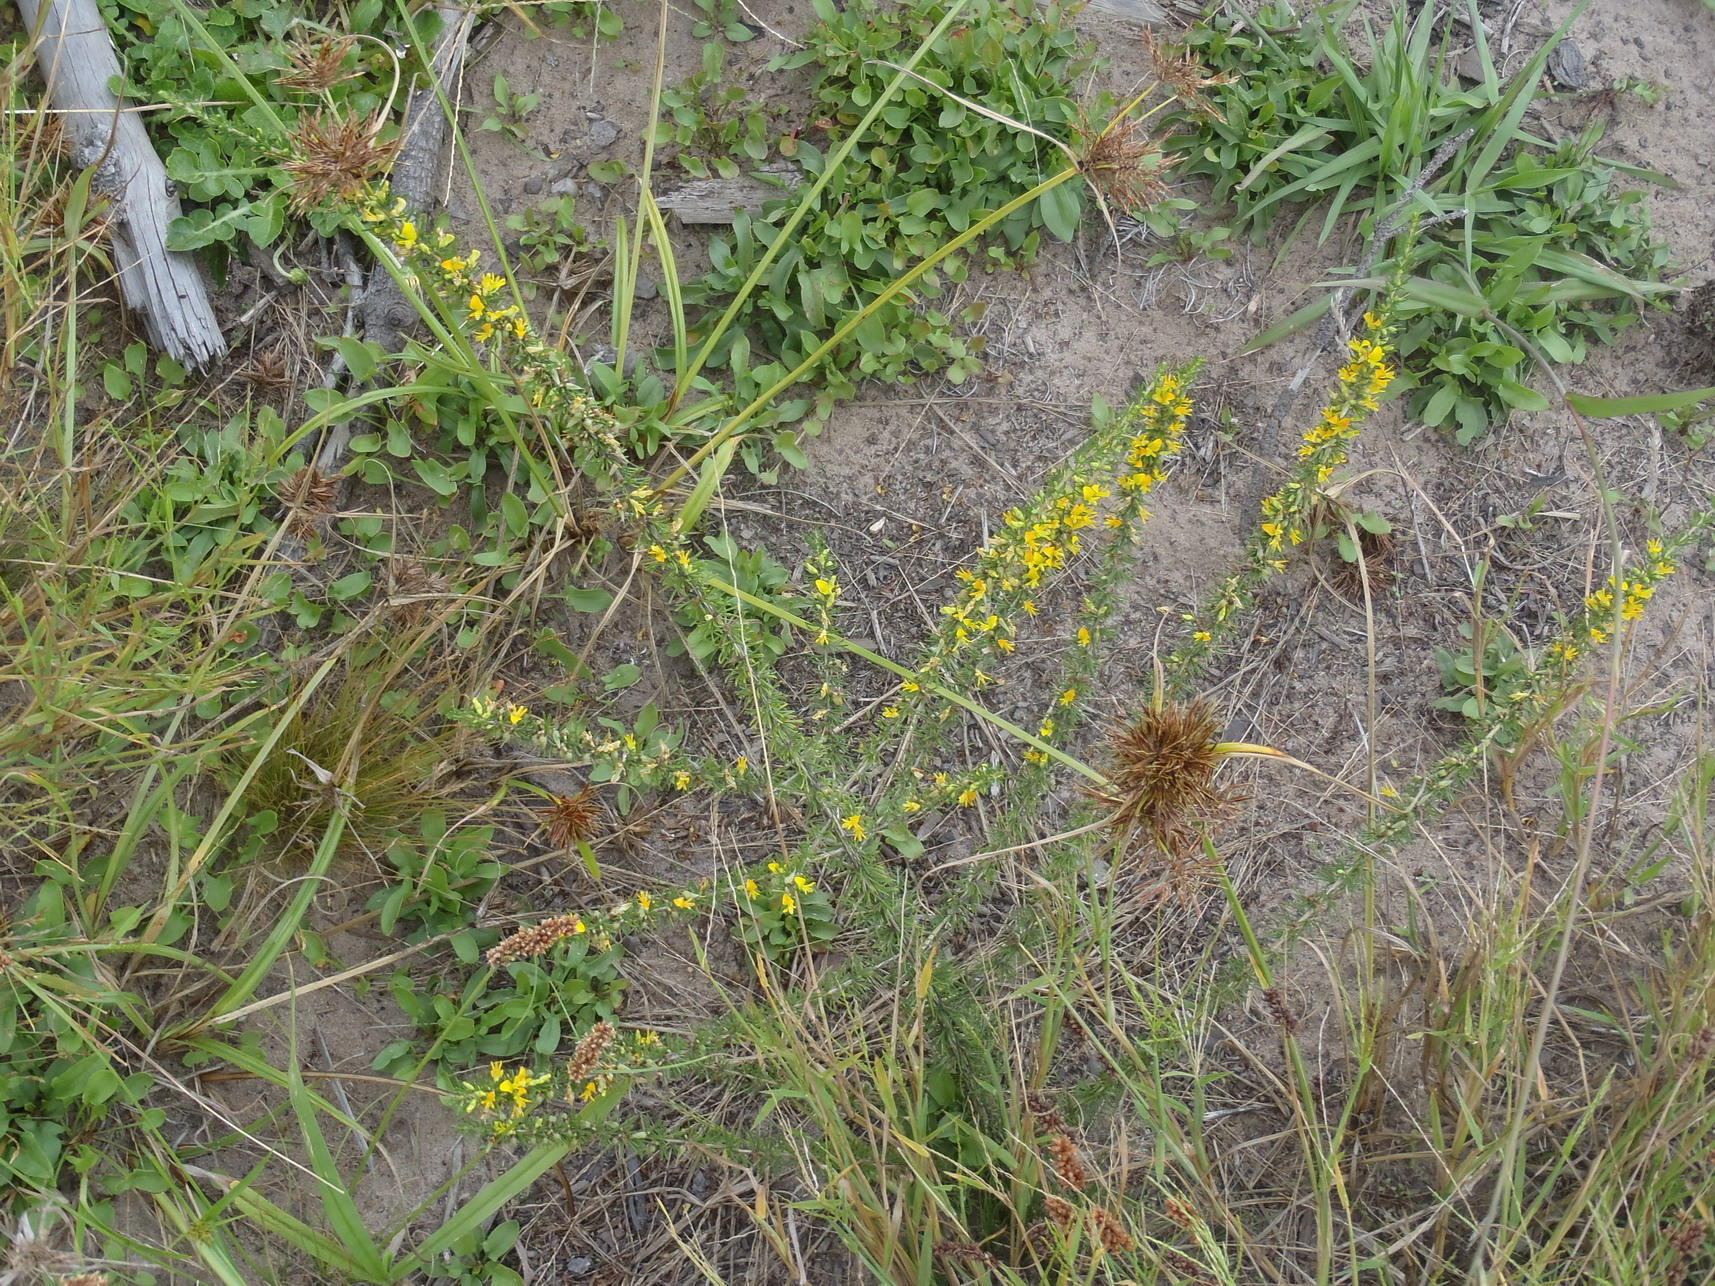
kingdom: Plantae
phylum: Tracheophyta
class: Magnoliopsida
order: Fabales
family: Fabaceae
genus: Aspalathus
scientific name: Aspalathus spinosa
